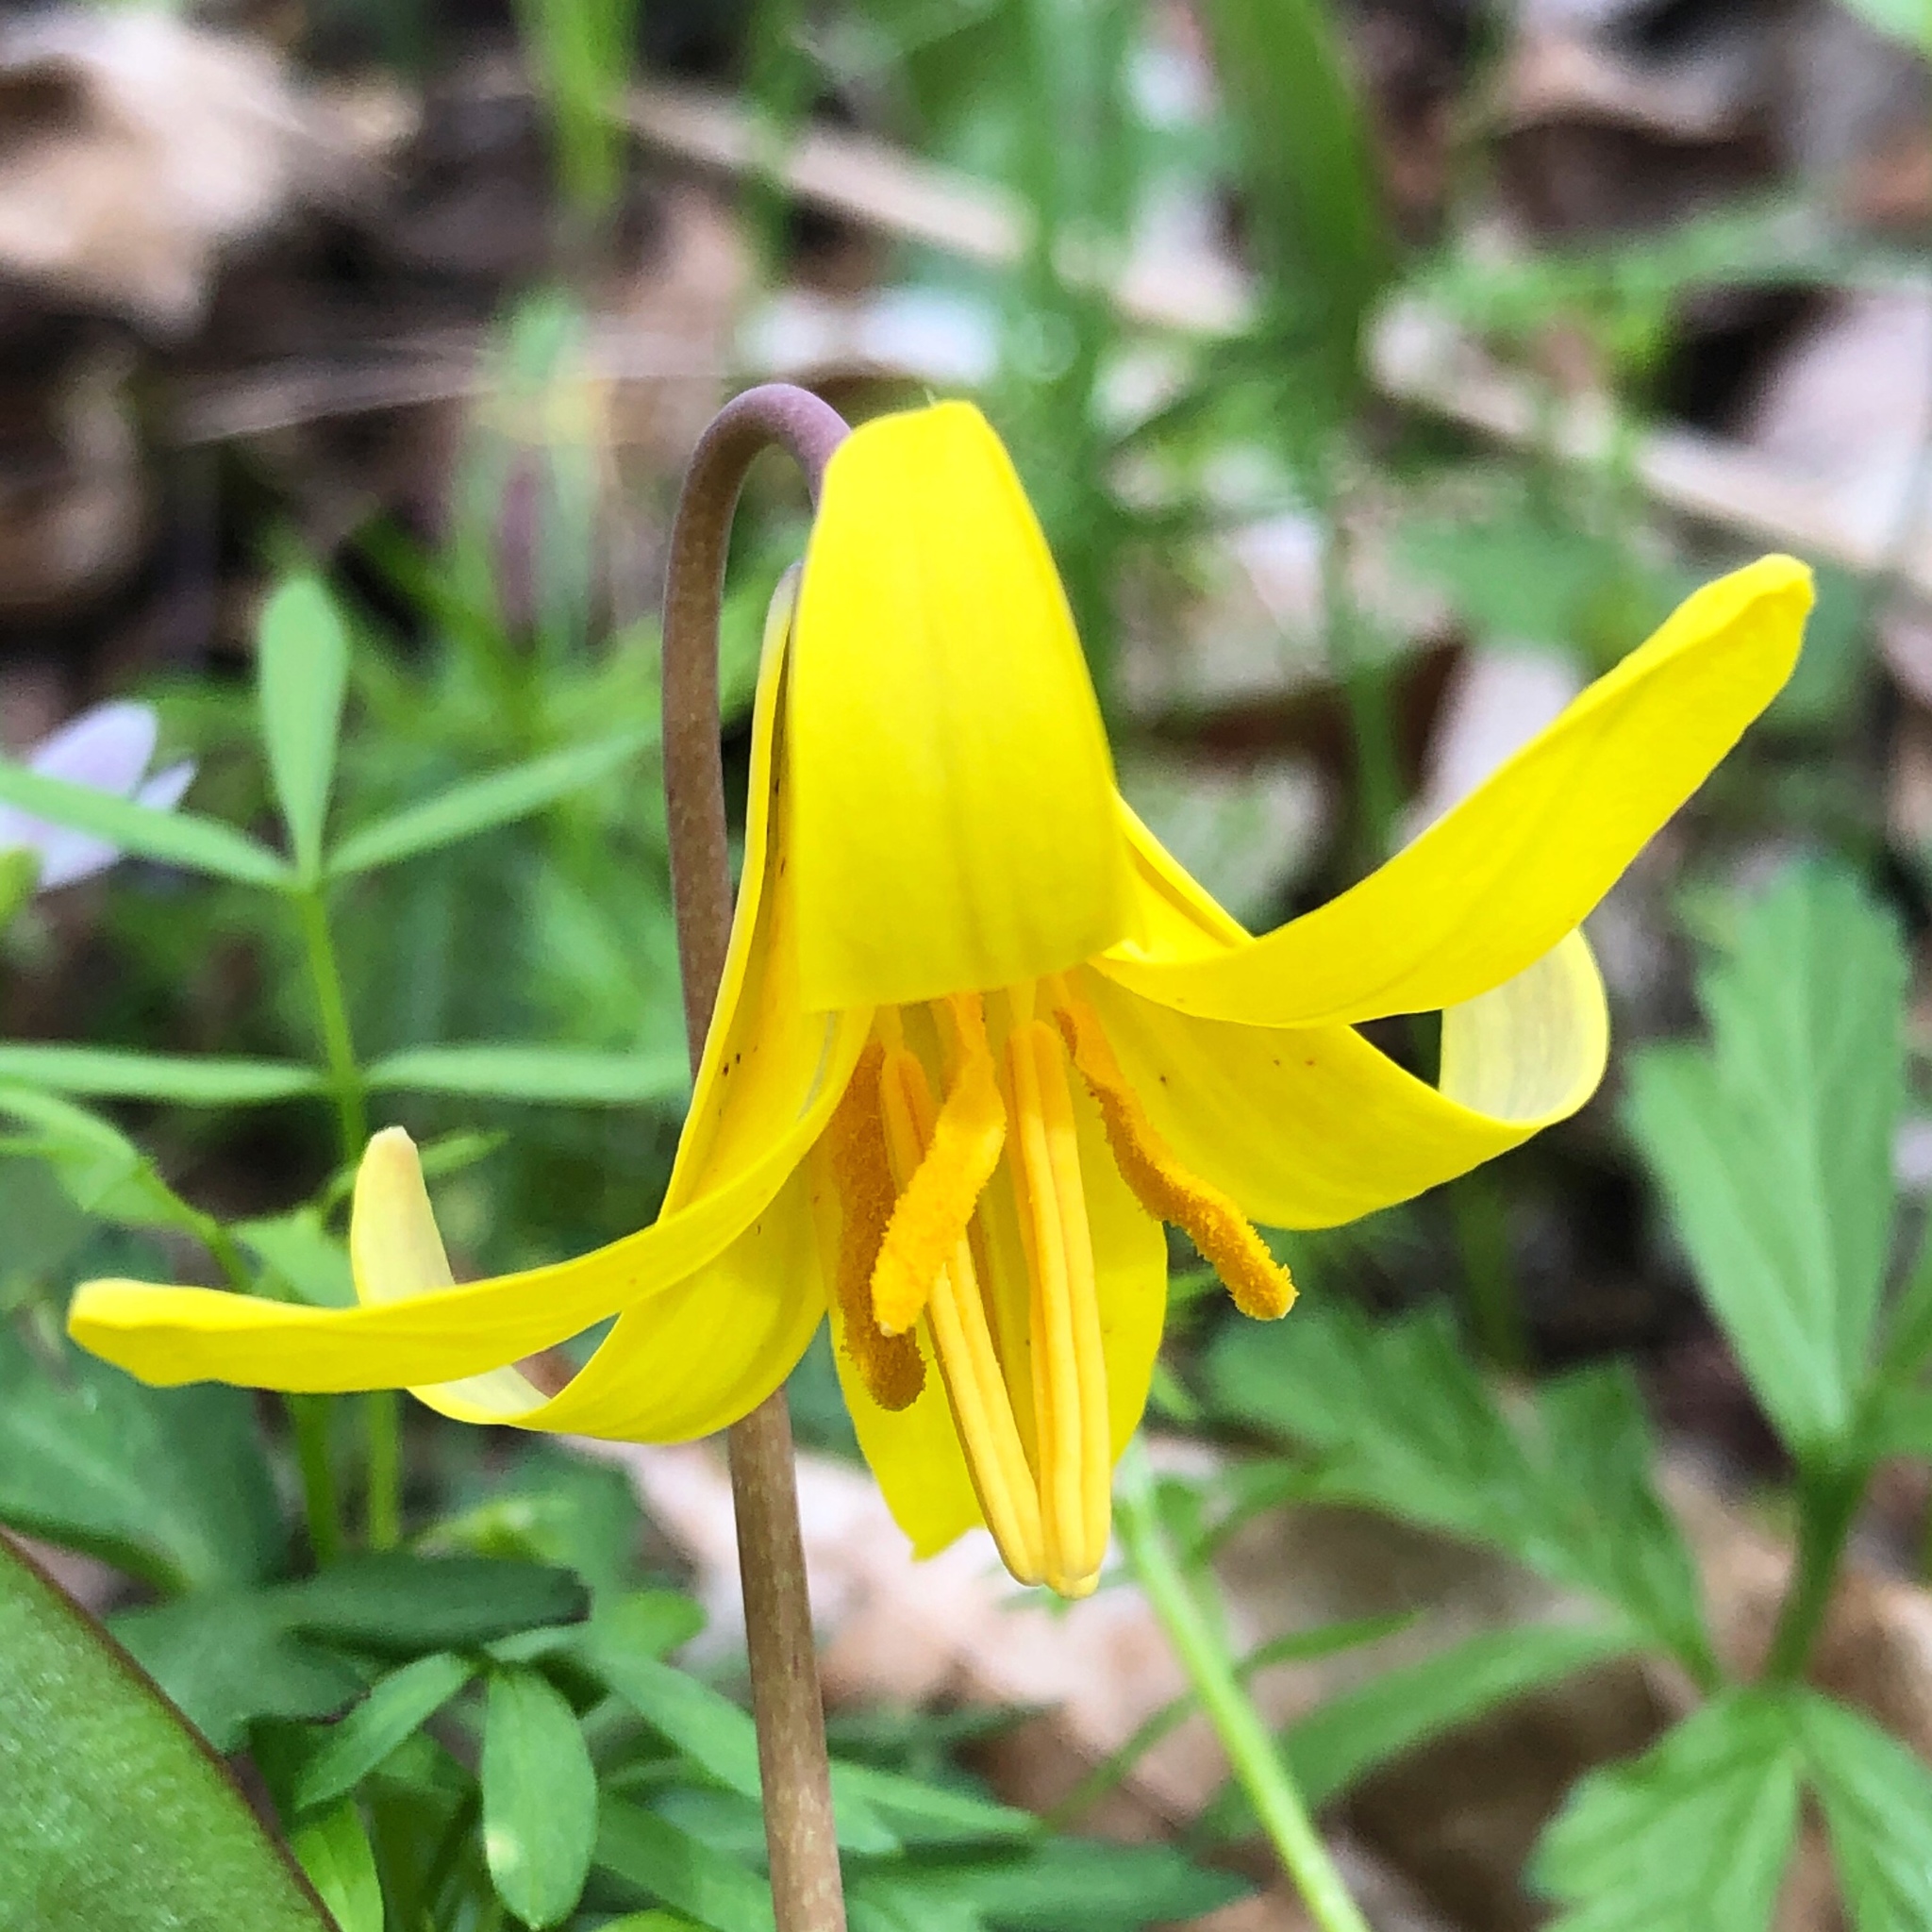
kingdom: Plantae
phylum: Tracheophyta
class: Liliopsida
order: Liliales
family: Liliaceae
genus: Erythronium
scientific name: Erythronium americanum
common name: Yellow adder's-tongue
